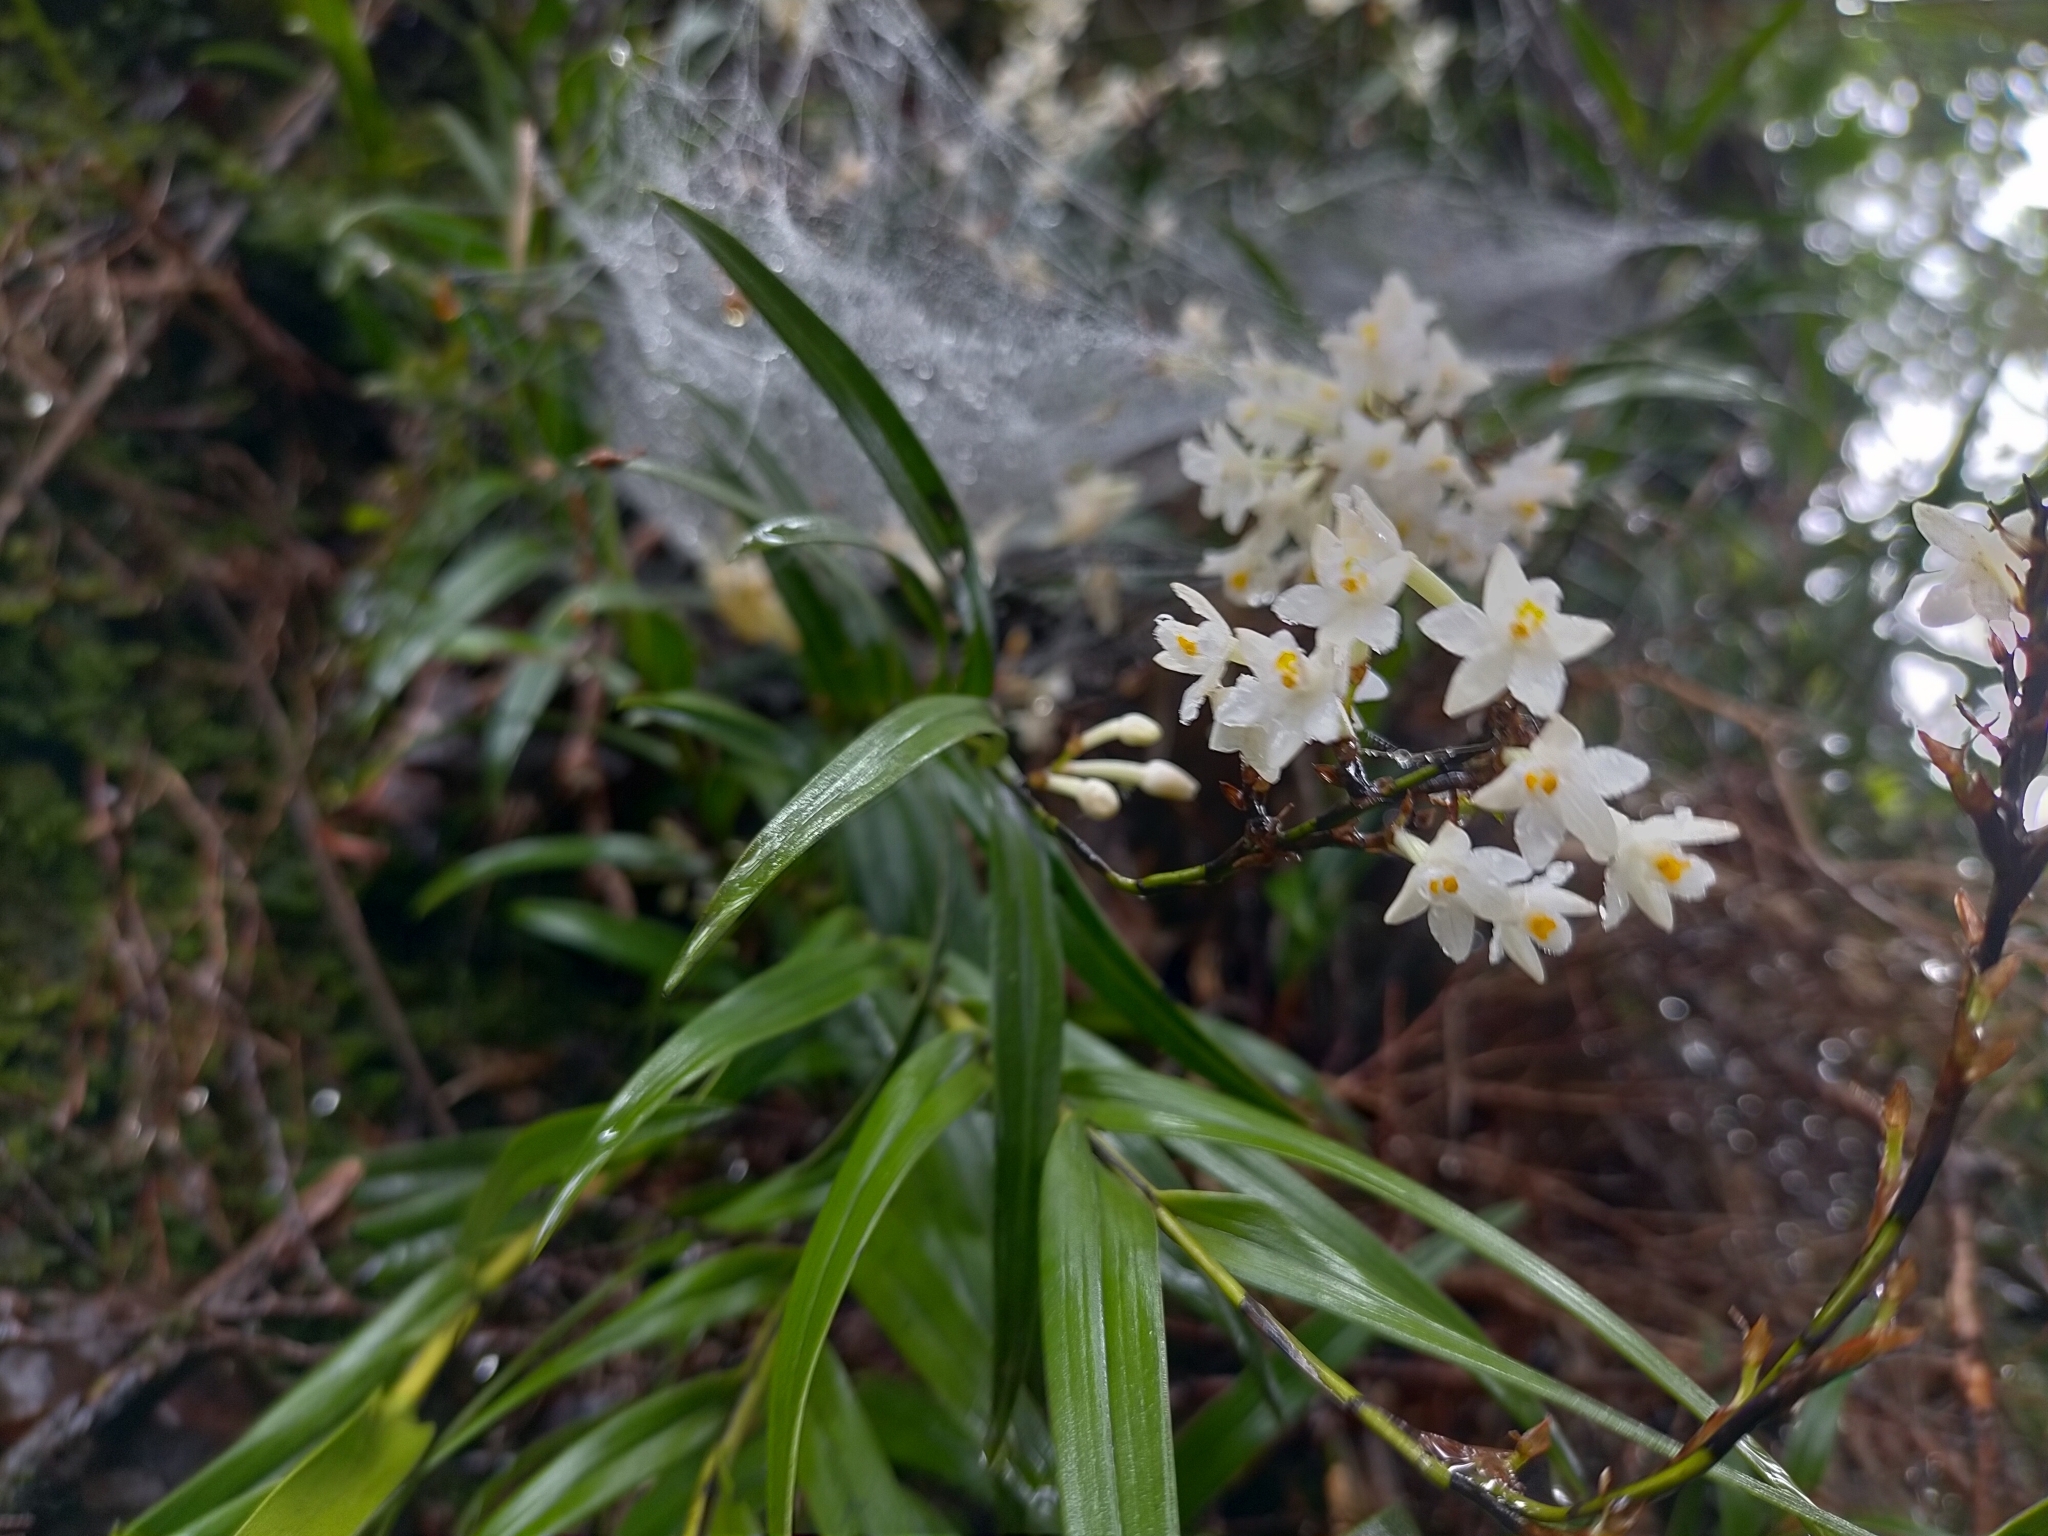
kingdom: Plantae
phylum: Tracheophyta
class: Liliopsida
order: Asparagales
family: Orchidaceae
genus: Earina
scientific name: Earina autumnalis
